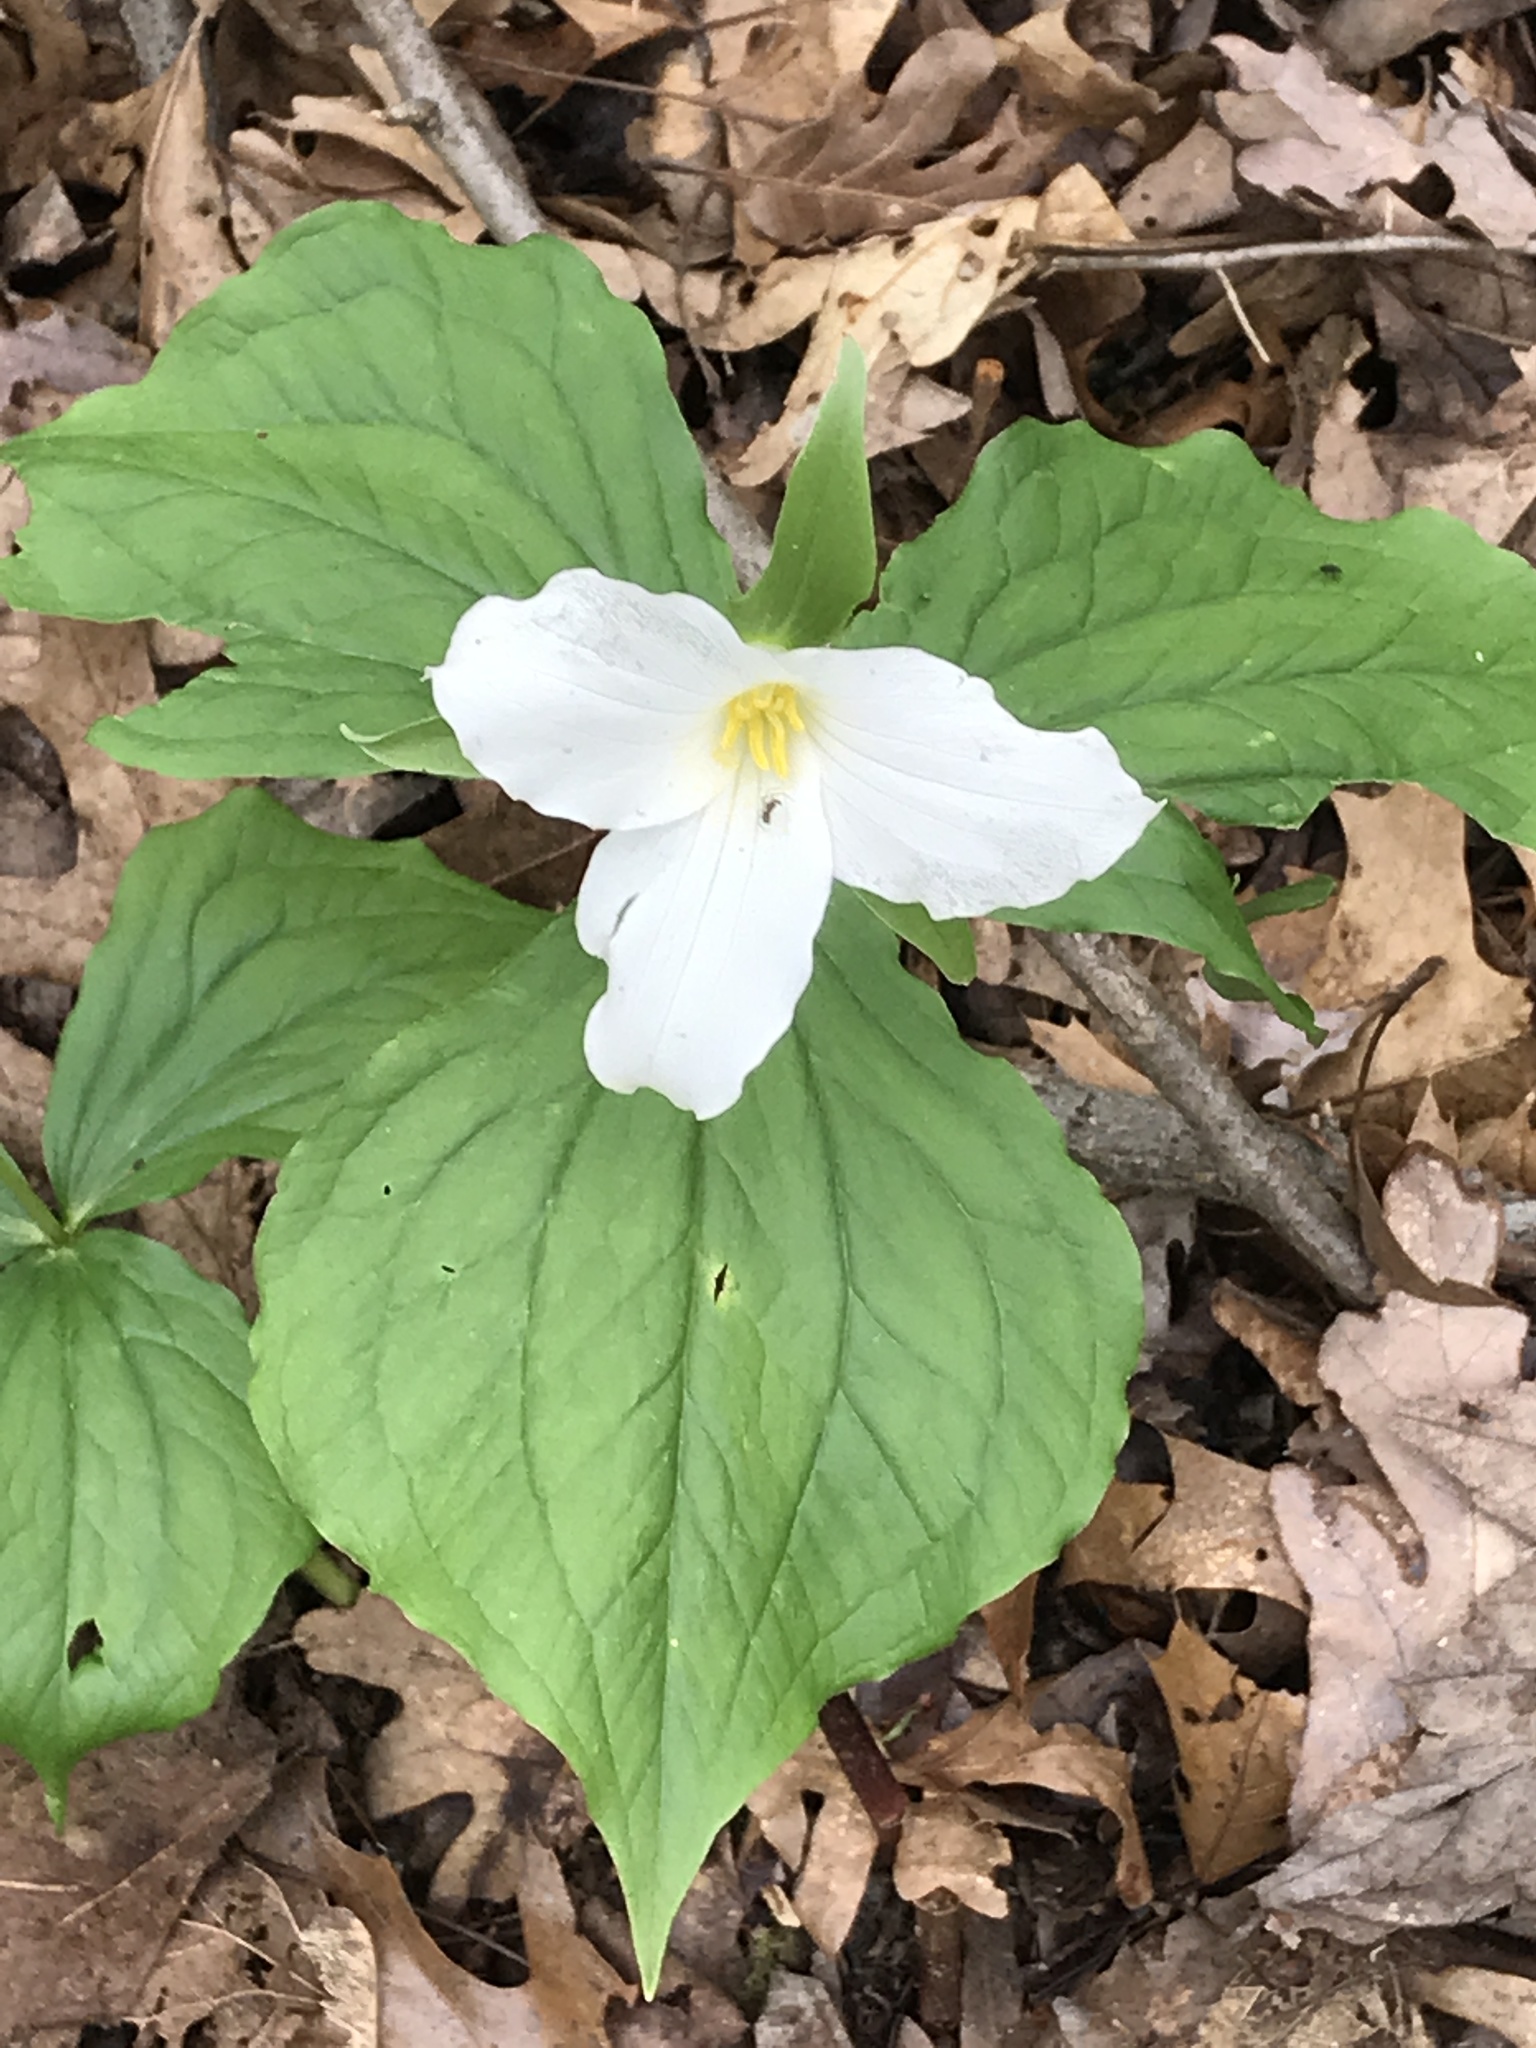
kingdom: Plantae
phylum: Tracheophyta
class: Liliopsida
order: Liliales
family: Melanthiaceae
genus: Trillium
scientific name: Trillium grandiflorum
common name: Great white trillium
